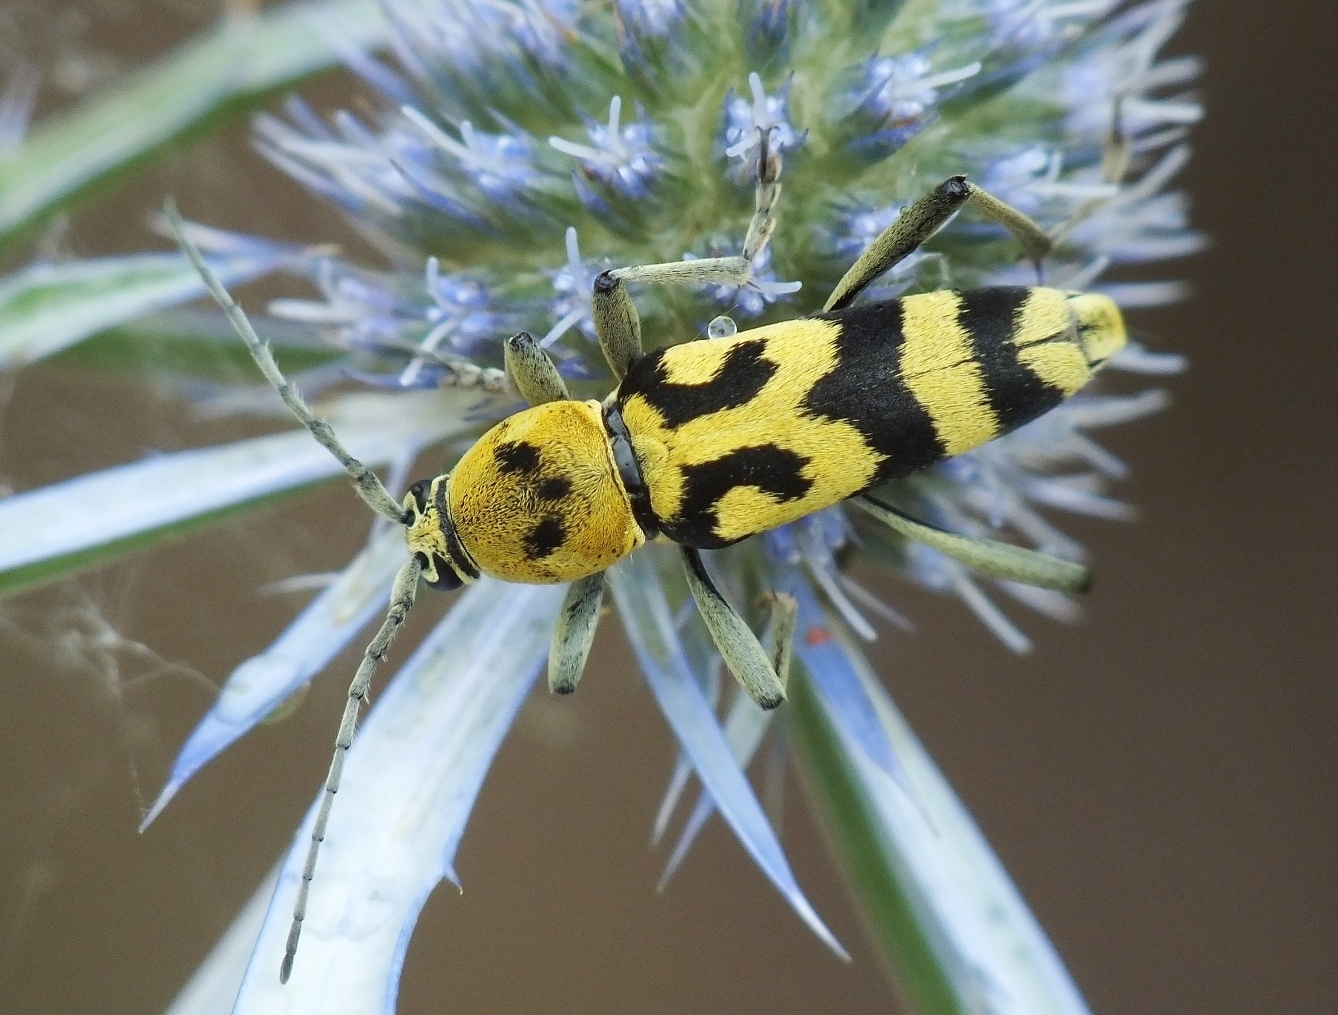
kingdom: Animalia
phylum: Arthropoda
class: Insecta
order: Coleoptera
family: Cerambycidae
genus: Chlorophorus
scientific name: Chlorophorus varius
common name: Grape wood borer
